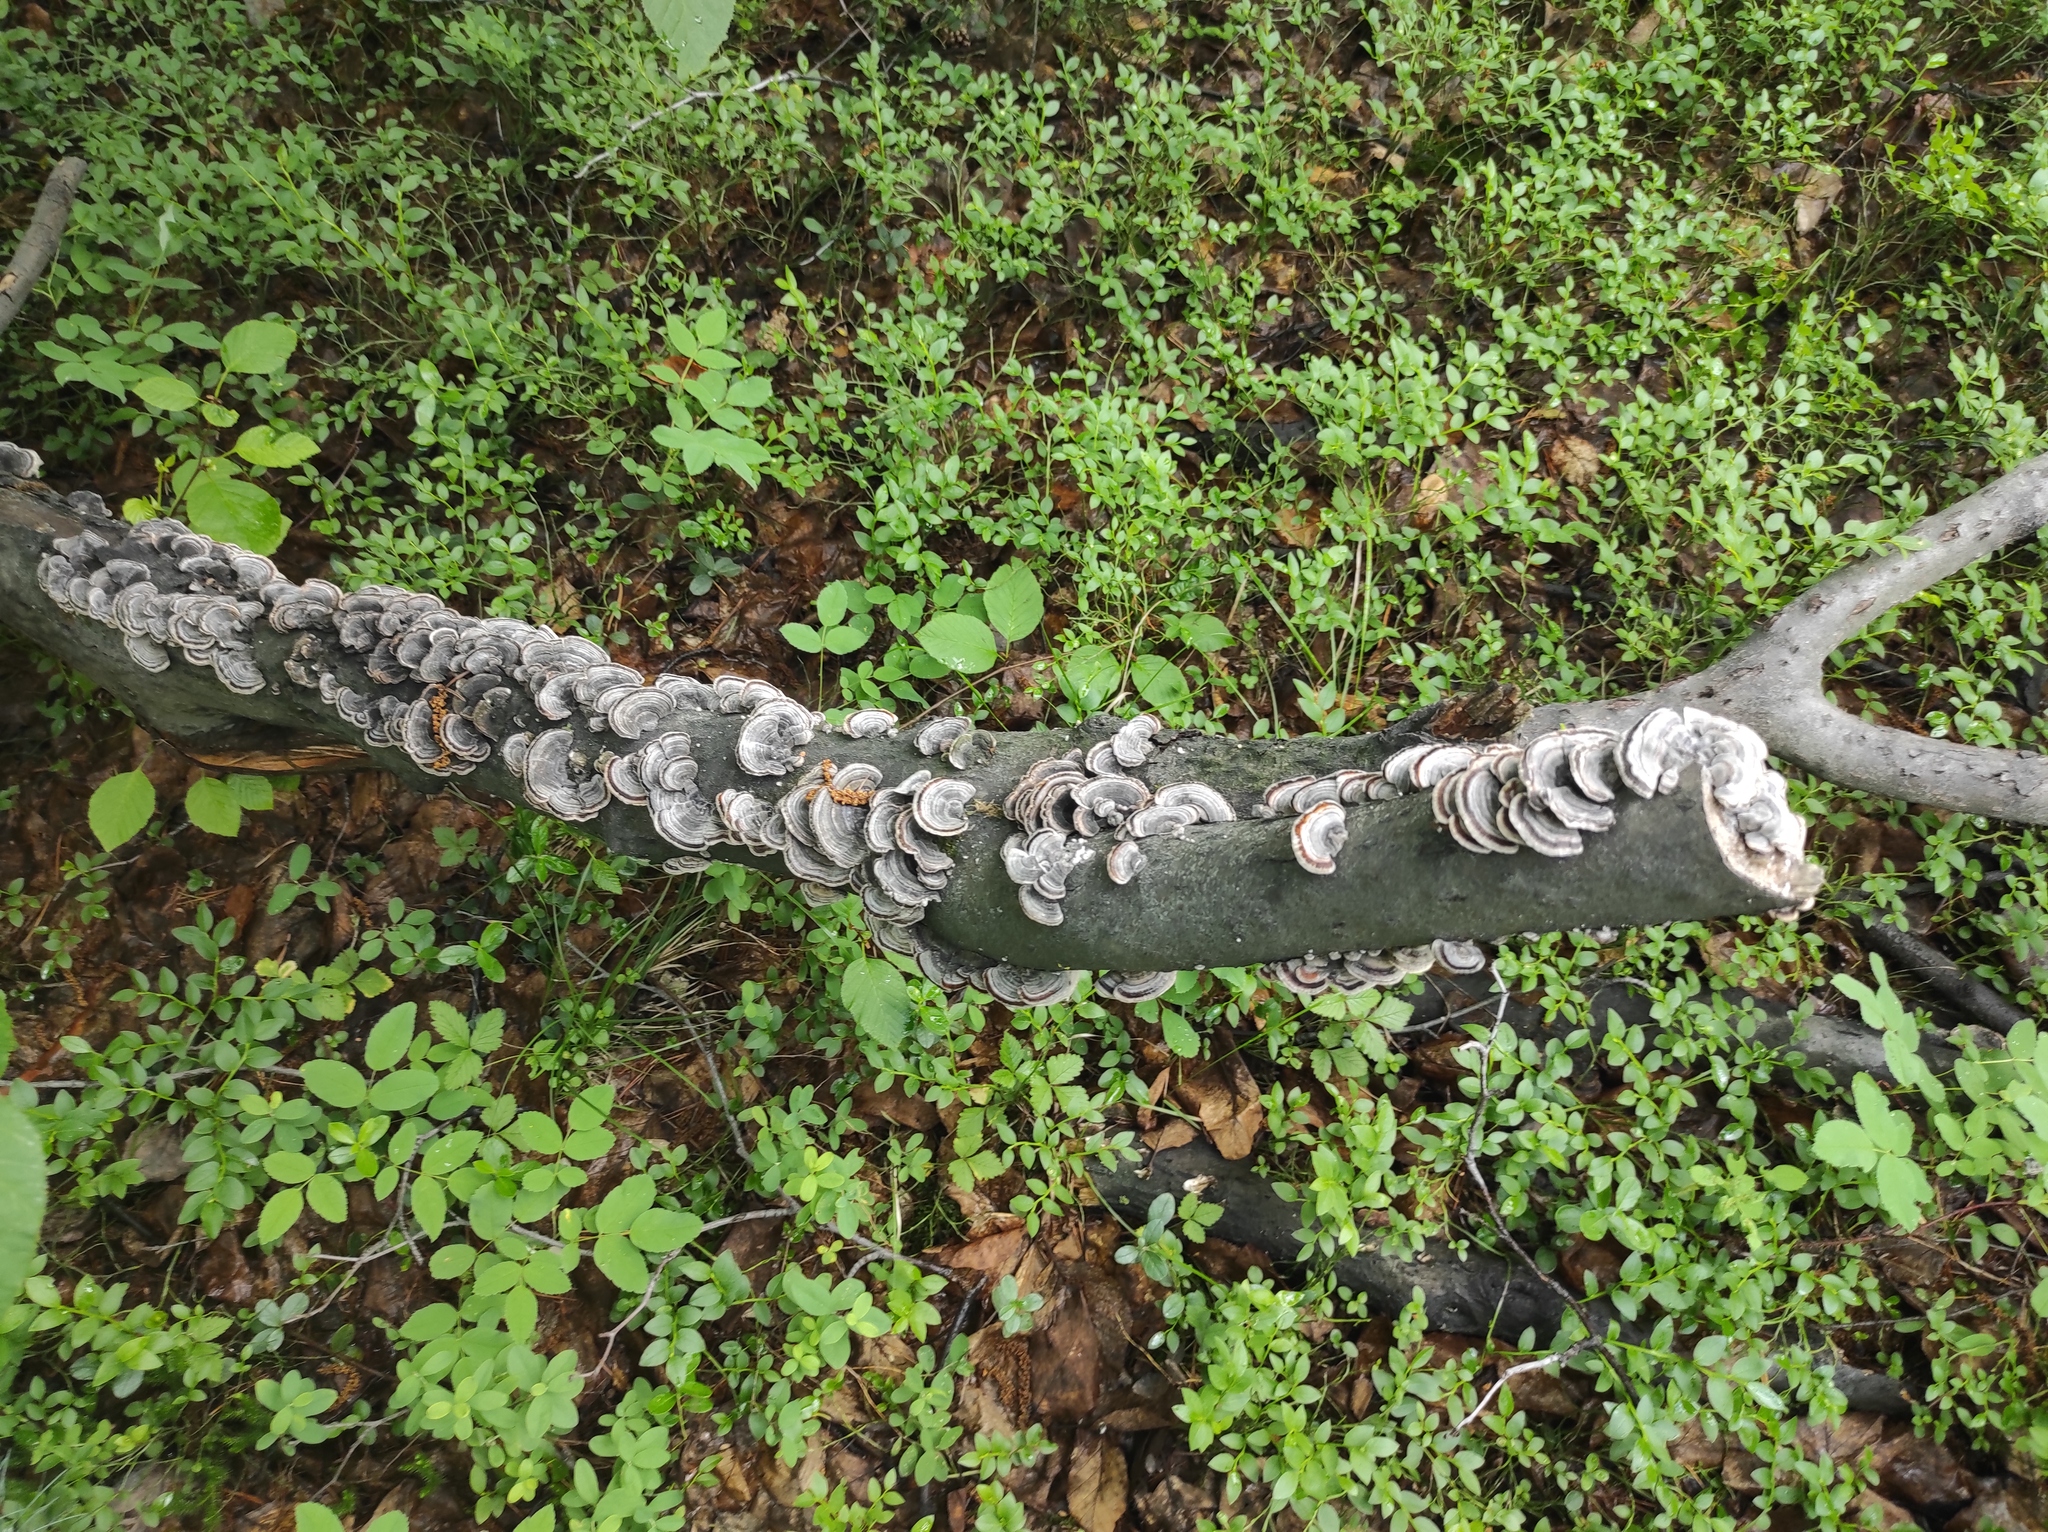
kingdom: Plantae
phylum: Tracheophyta
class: Magnoliopsida
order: Ericales
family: Ericaceae
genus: Vaccinium
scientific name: Vaccinium myrtillus
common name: Bilberry
